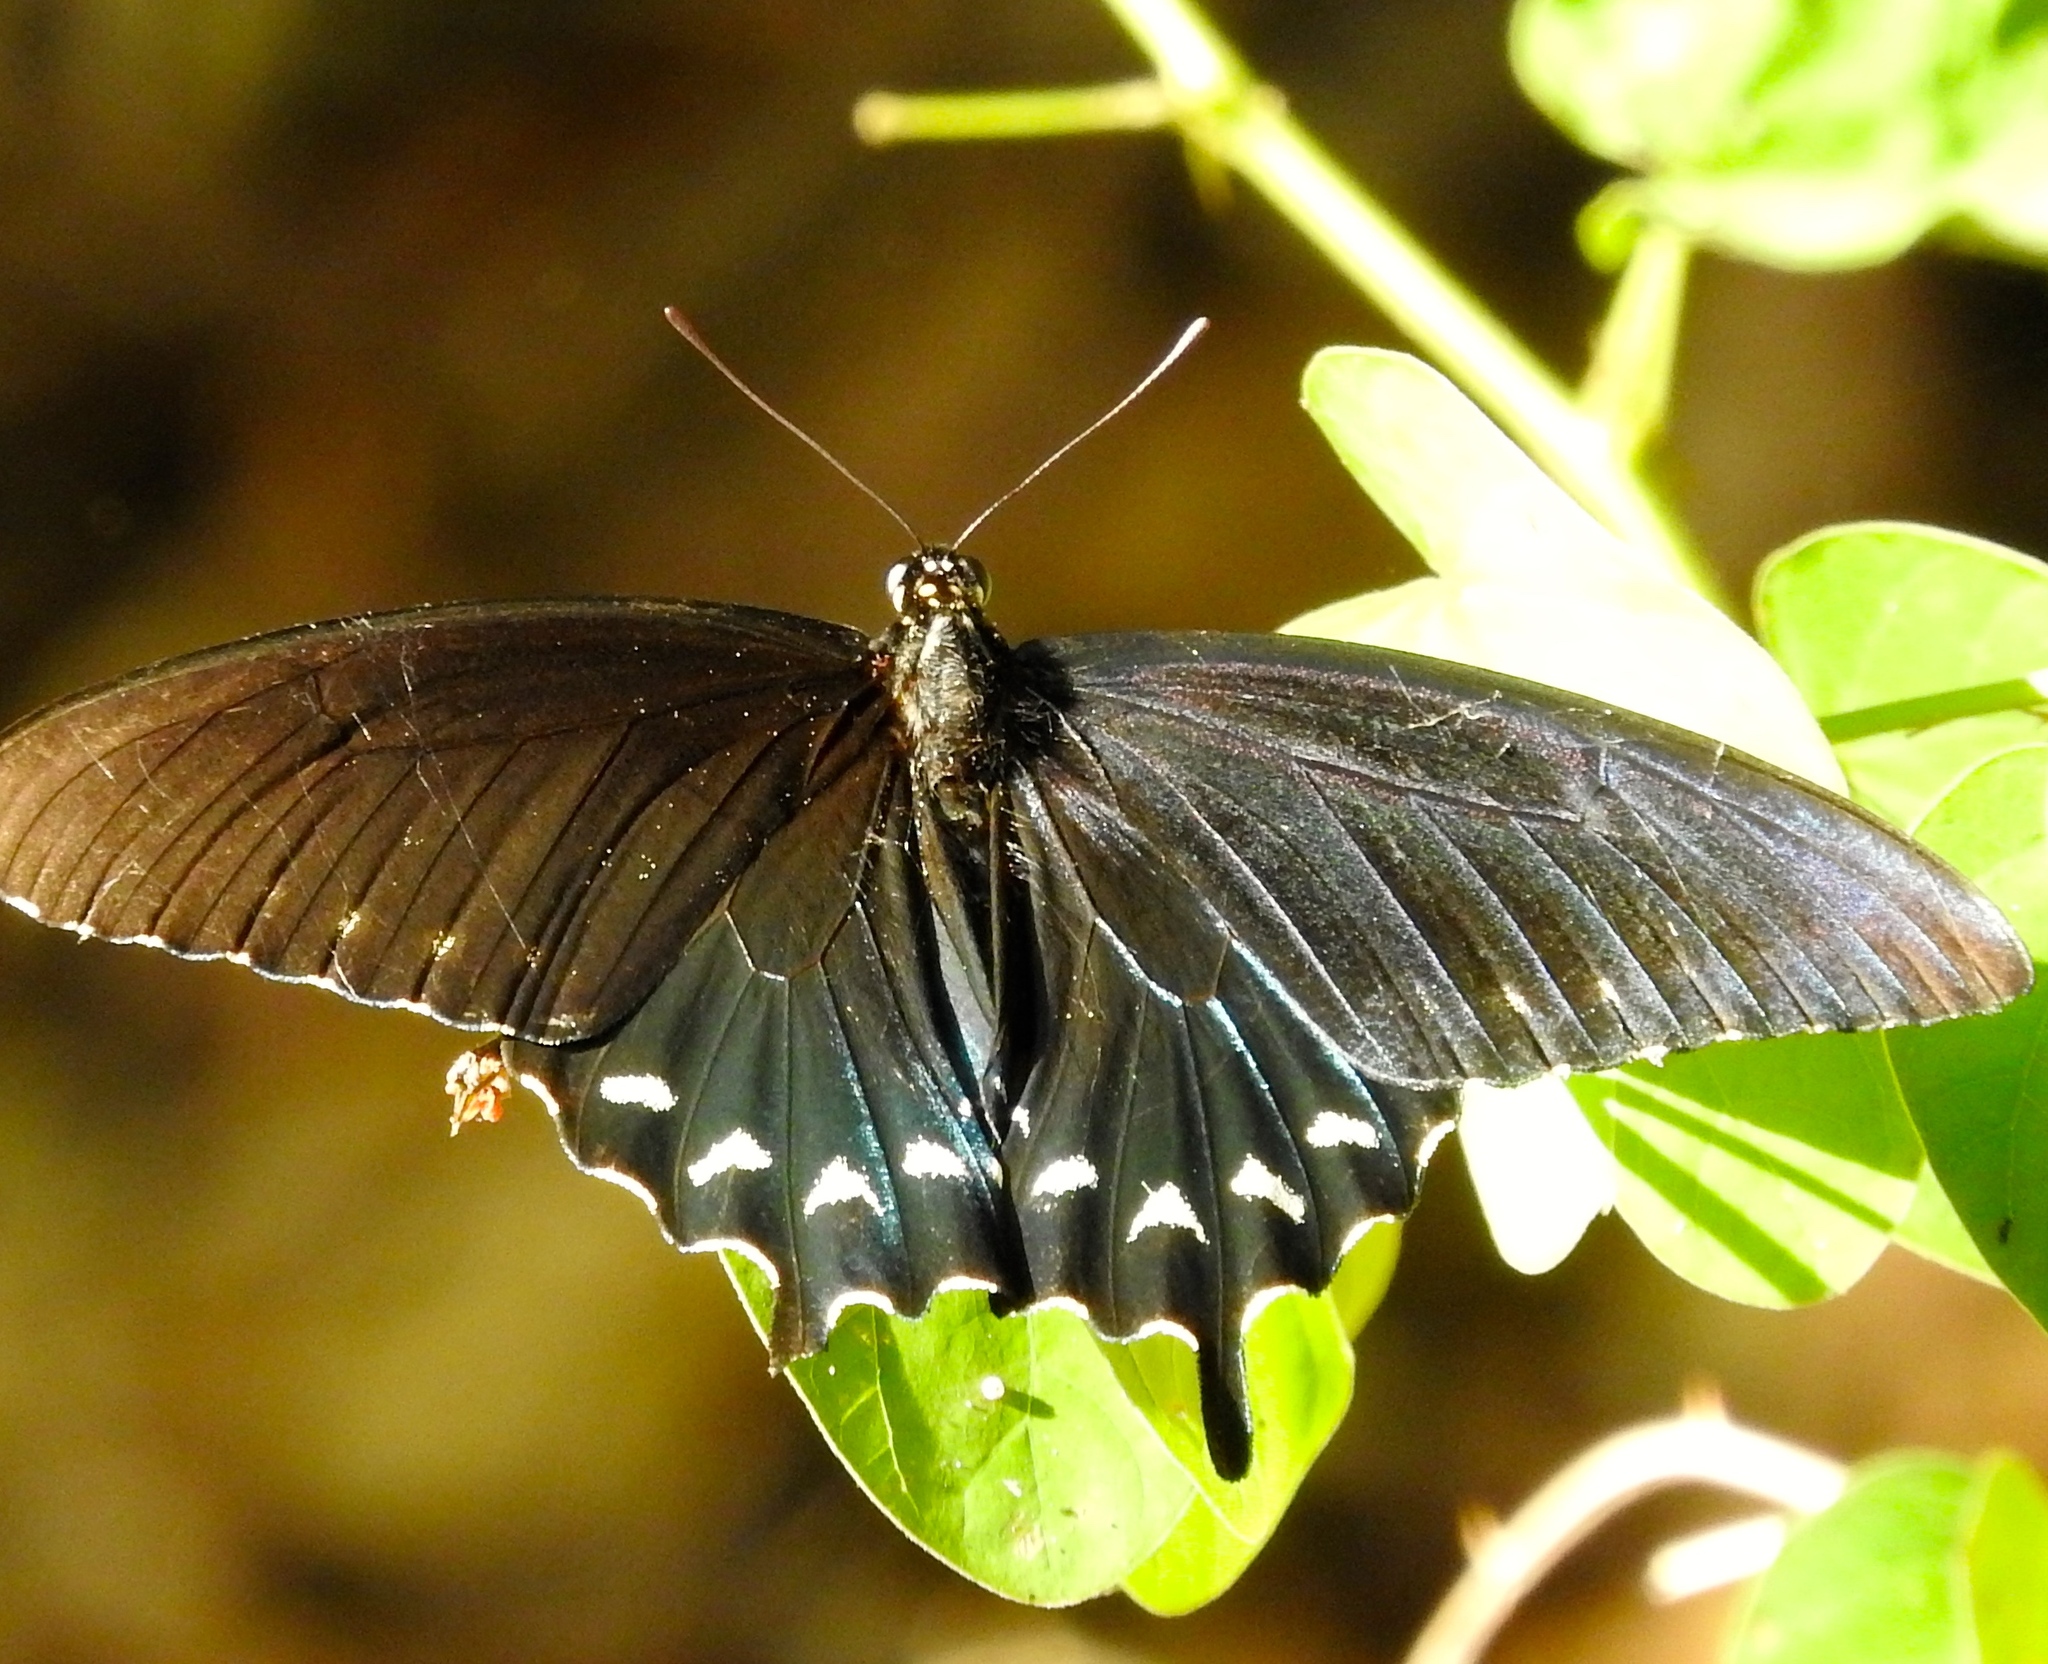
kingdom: Animalia
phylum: Arthropoda
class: Insecta
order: Lepidoptera
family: Papilionidae
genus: Battus
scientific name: Battus philenor
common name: Pipevine swallowtail
